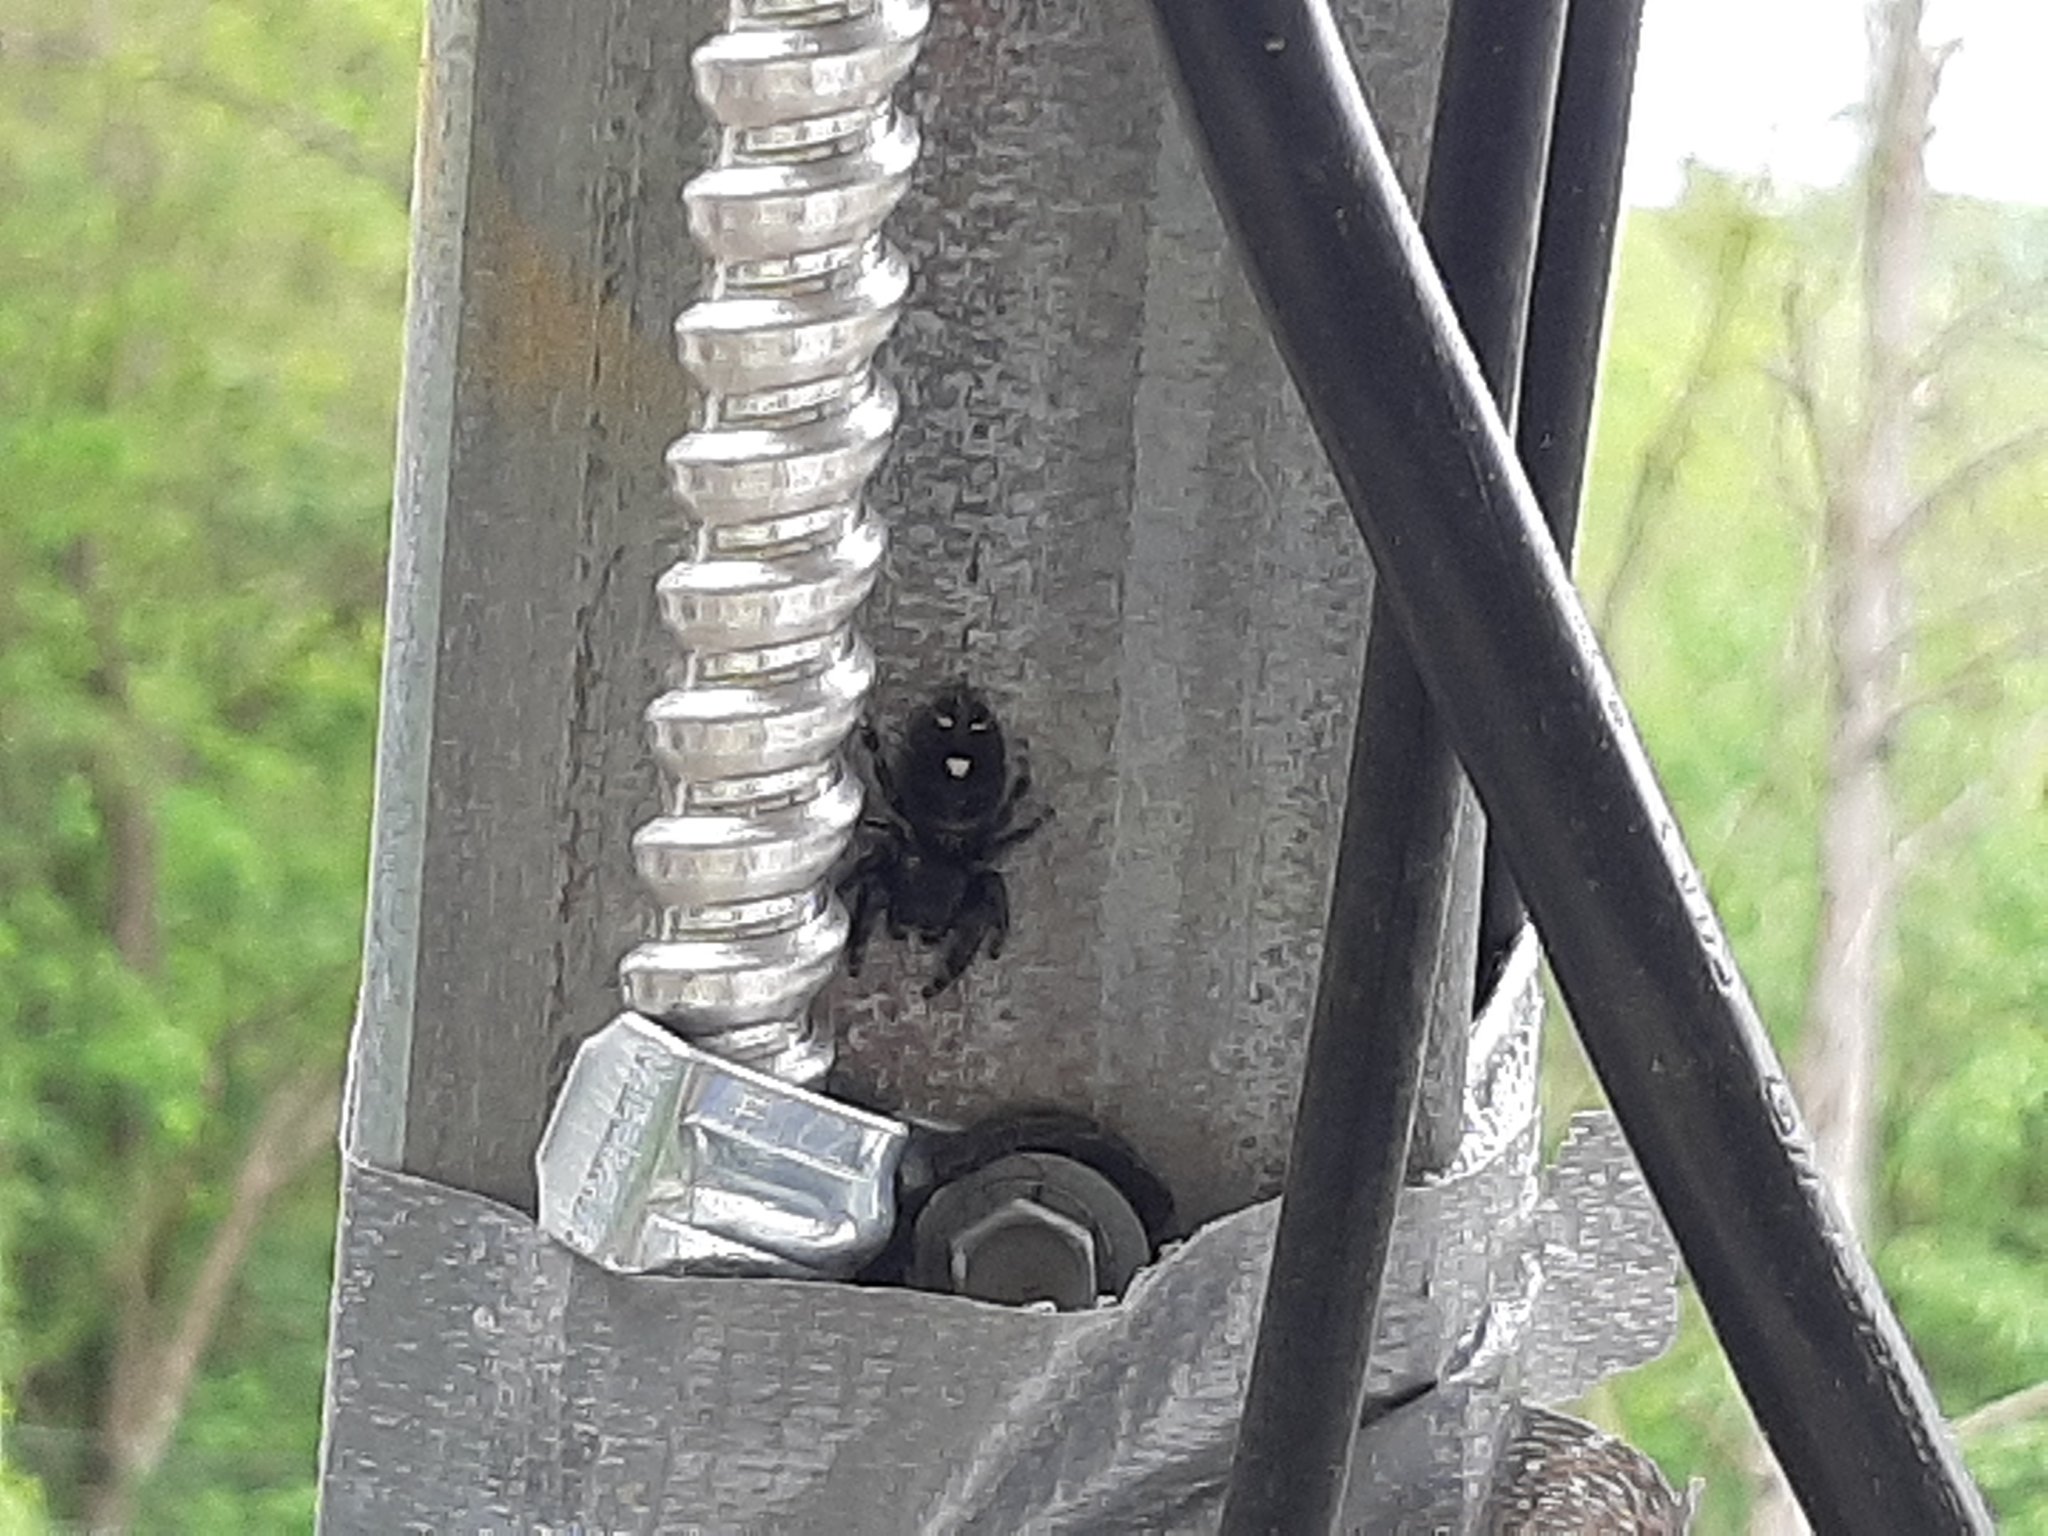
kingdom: Animalia
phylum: Arthropoda
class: Arachnida
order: Araneae
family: Salticidae
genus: Phidippus
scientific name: Phidippus audax
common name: Bold jumper
